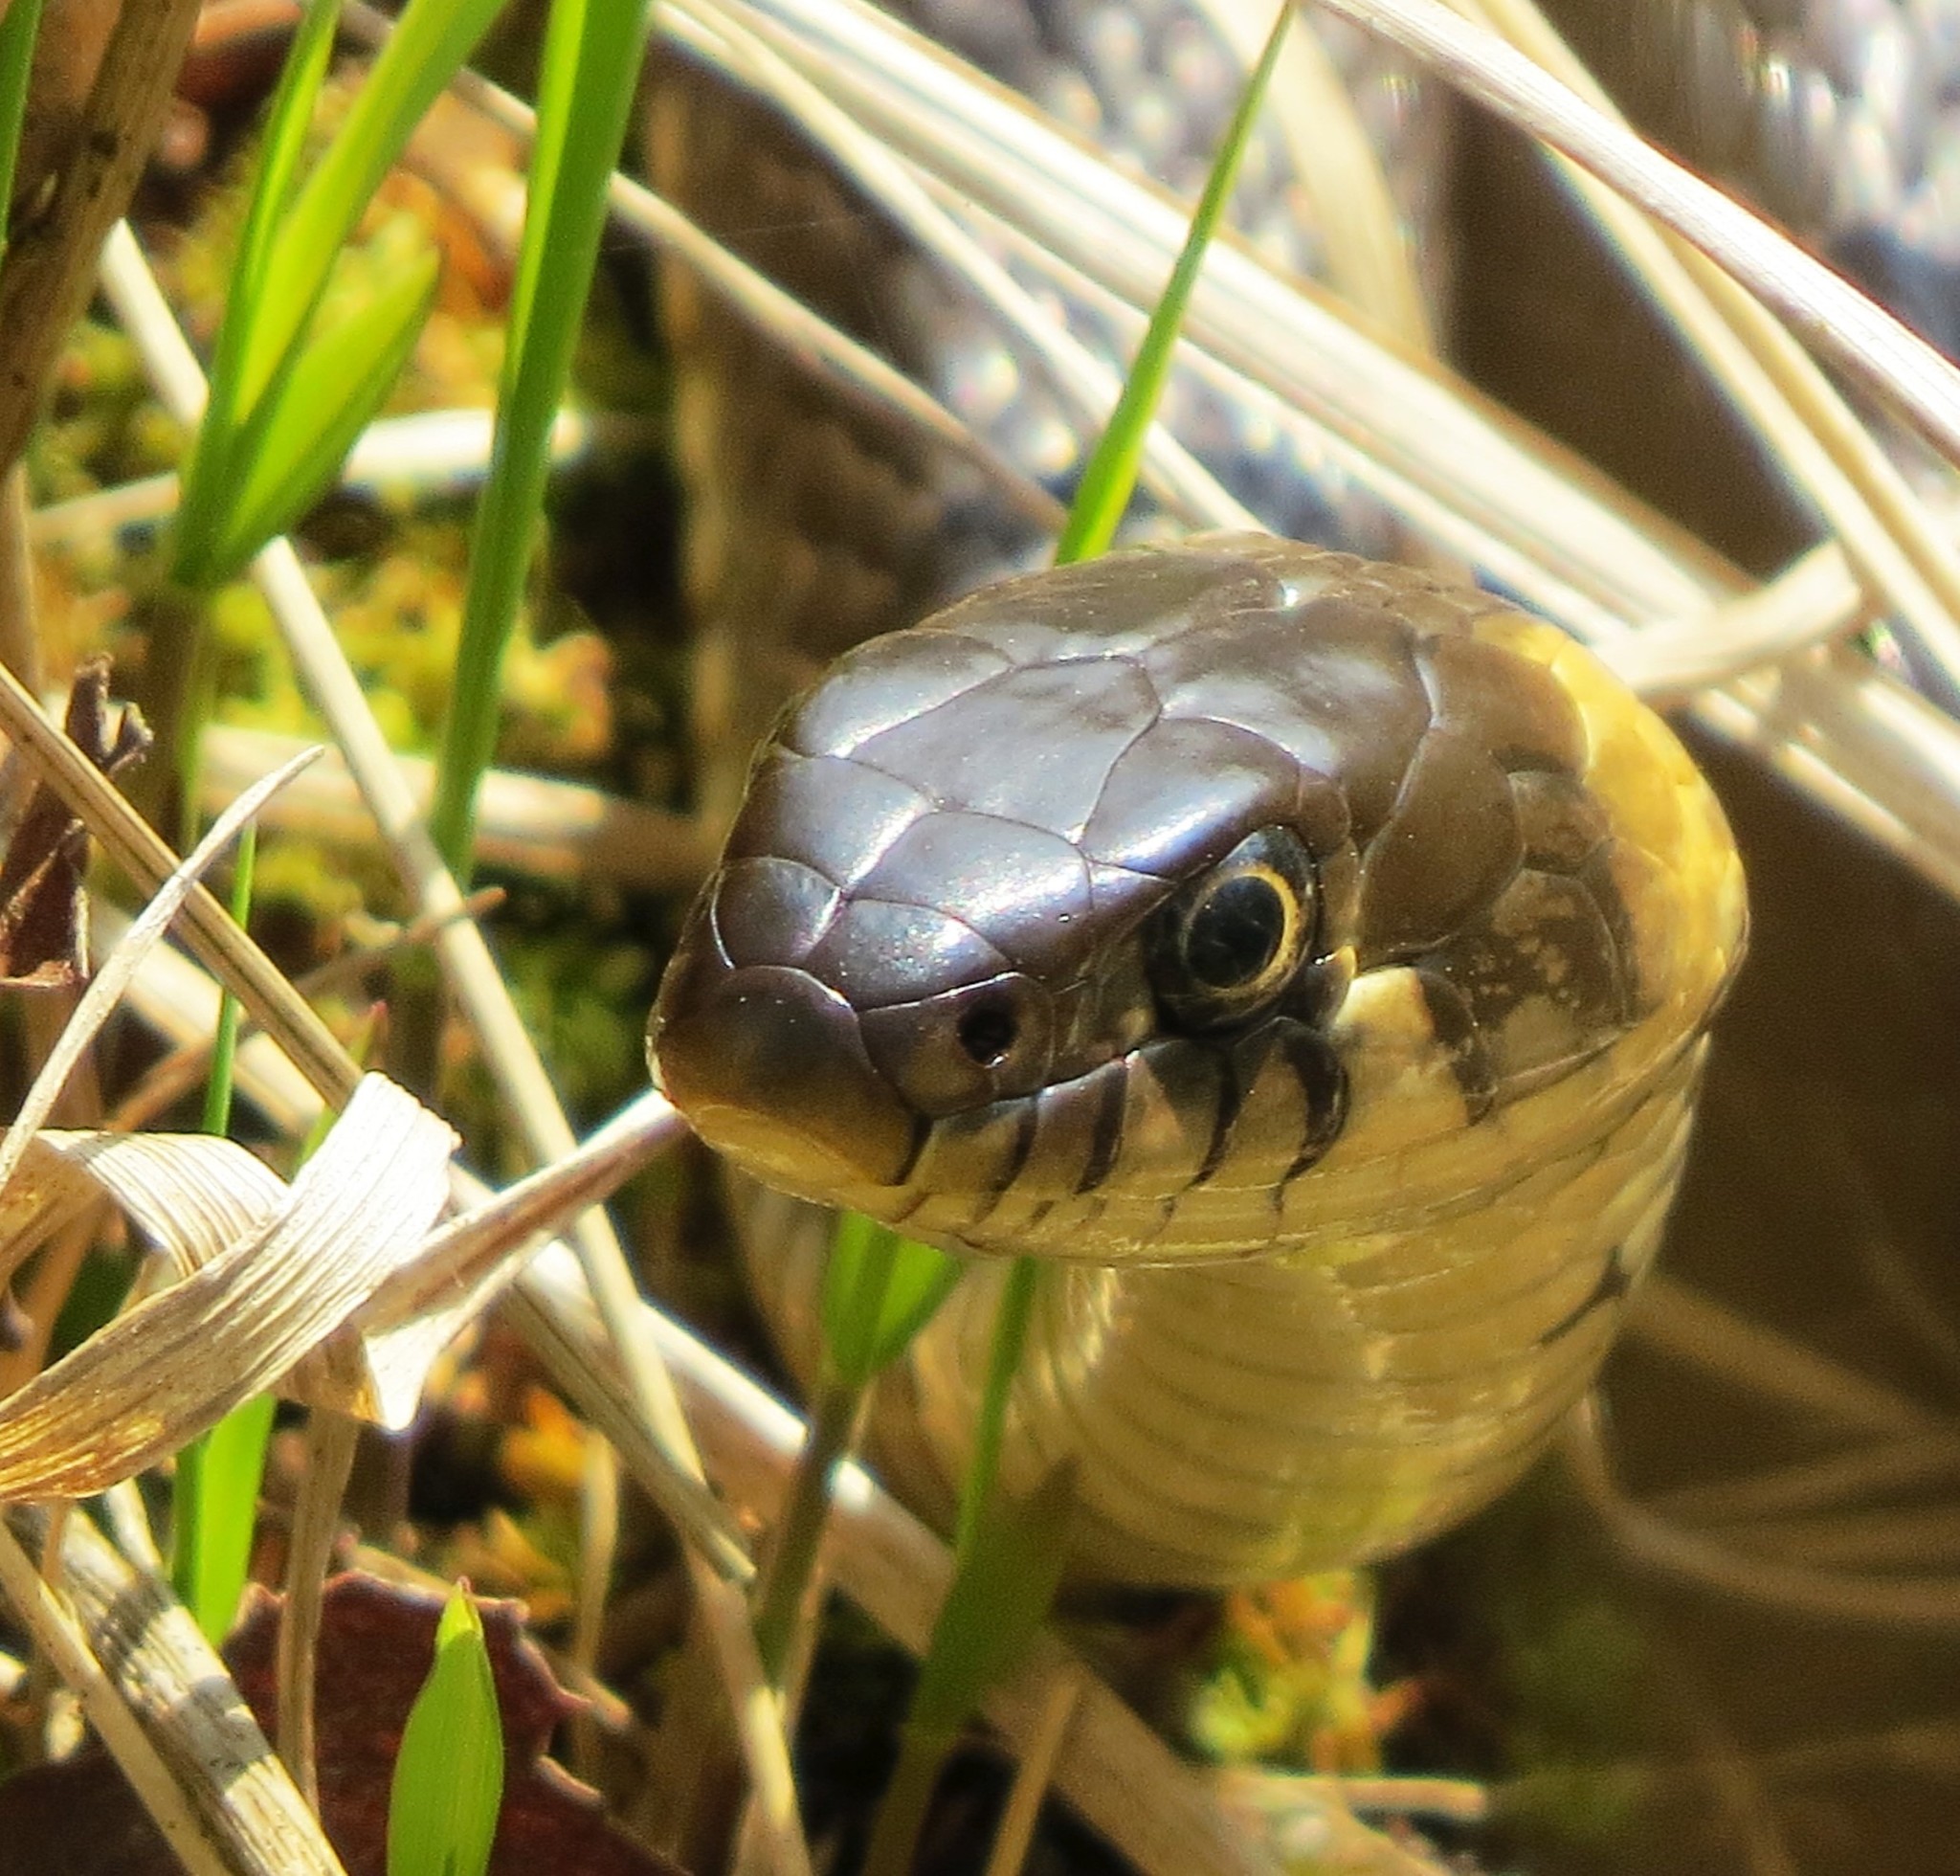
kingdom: Animalia
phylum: Chordata
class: Squamata
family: Colubridae
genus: Natrix
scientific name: Natrix natrix
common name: Grass snake
